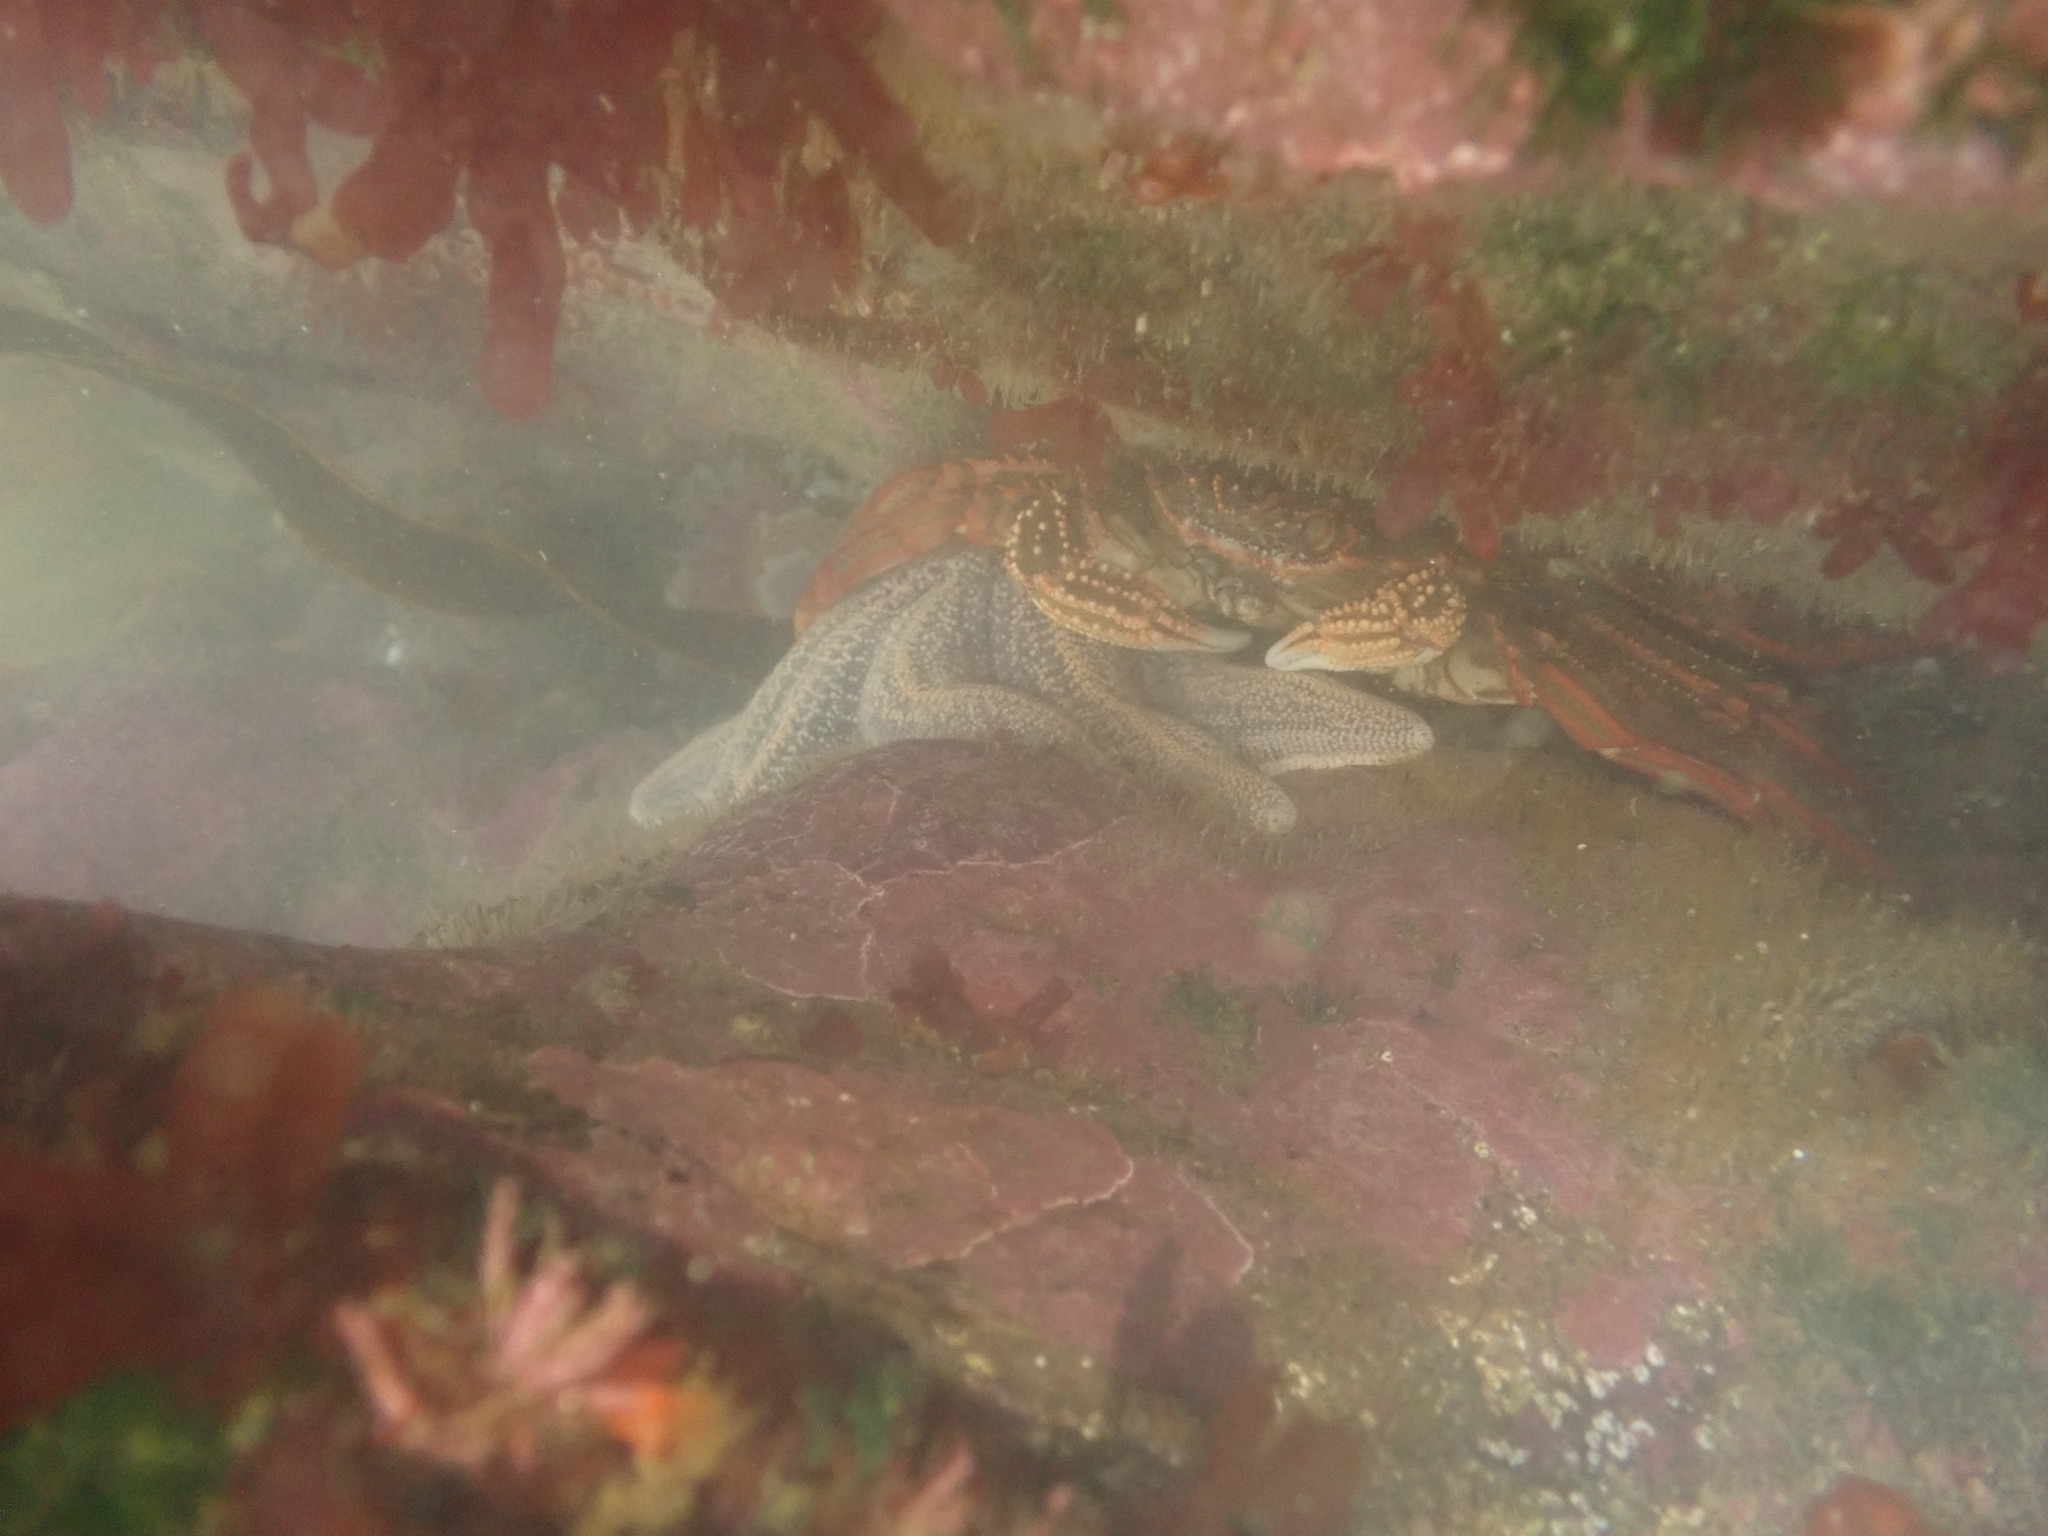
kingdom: Animalia
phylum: Arthropoda
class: Malacostraca
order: Decapoda
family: Plagusiidae
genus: Guinusia
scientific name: Guinusia chabrus
